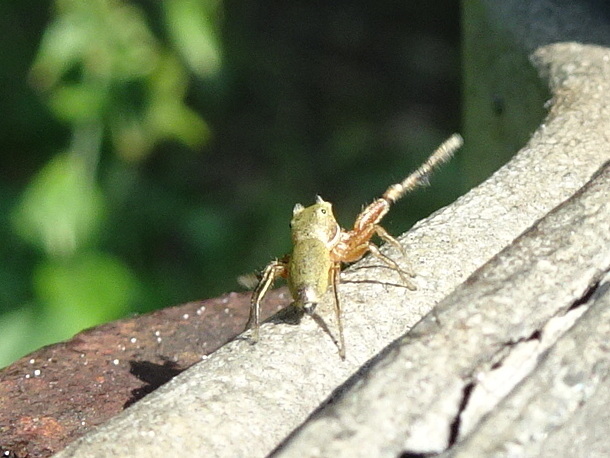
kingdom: Animalia
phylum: Arthropoda
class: Arachnida
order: Araneae
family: Salticidae
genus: Tutelina
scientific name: Tutelina elegans
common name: Thin-spined jumping spider
